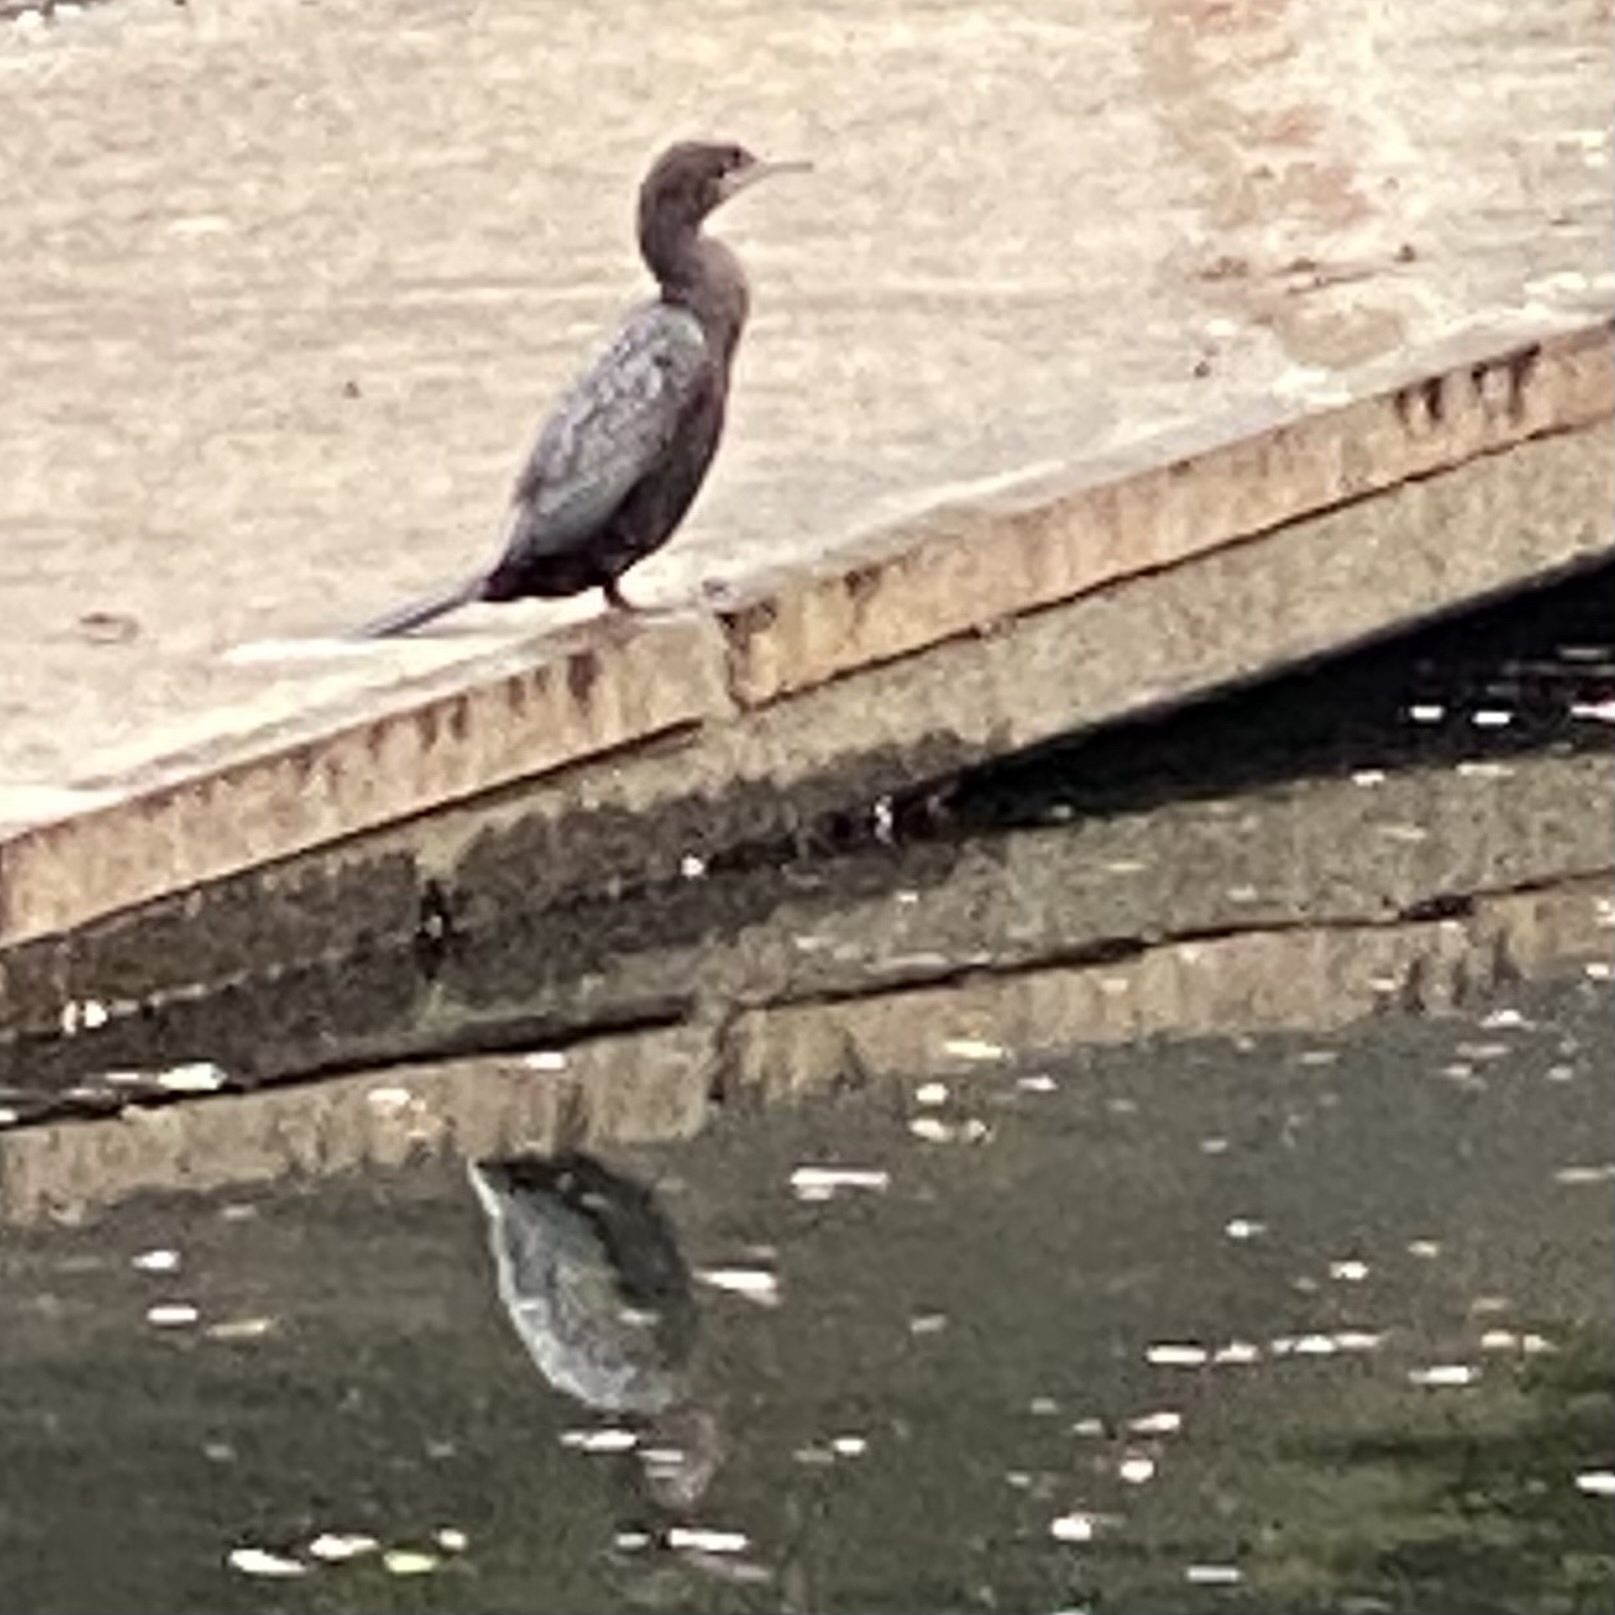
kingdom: Animalia
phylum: Chordata
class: Aves
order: Suliformes
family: Phalacrocoracidae
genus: Phalacrocorax
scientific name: Phalacrocorax sulcirostris
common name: Little black cormorant
